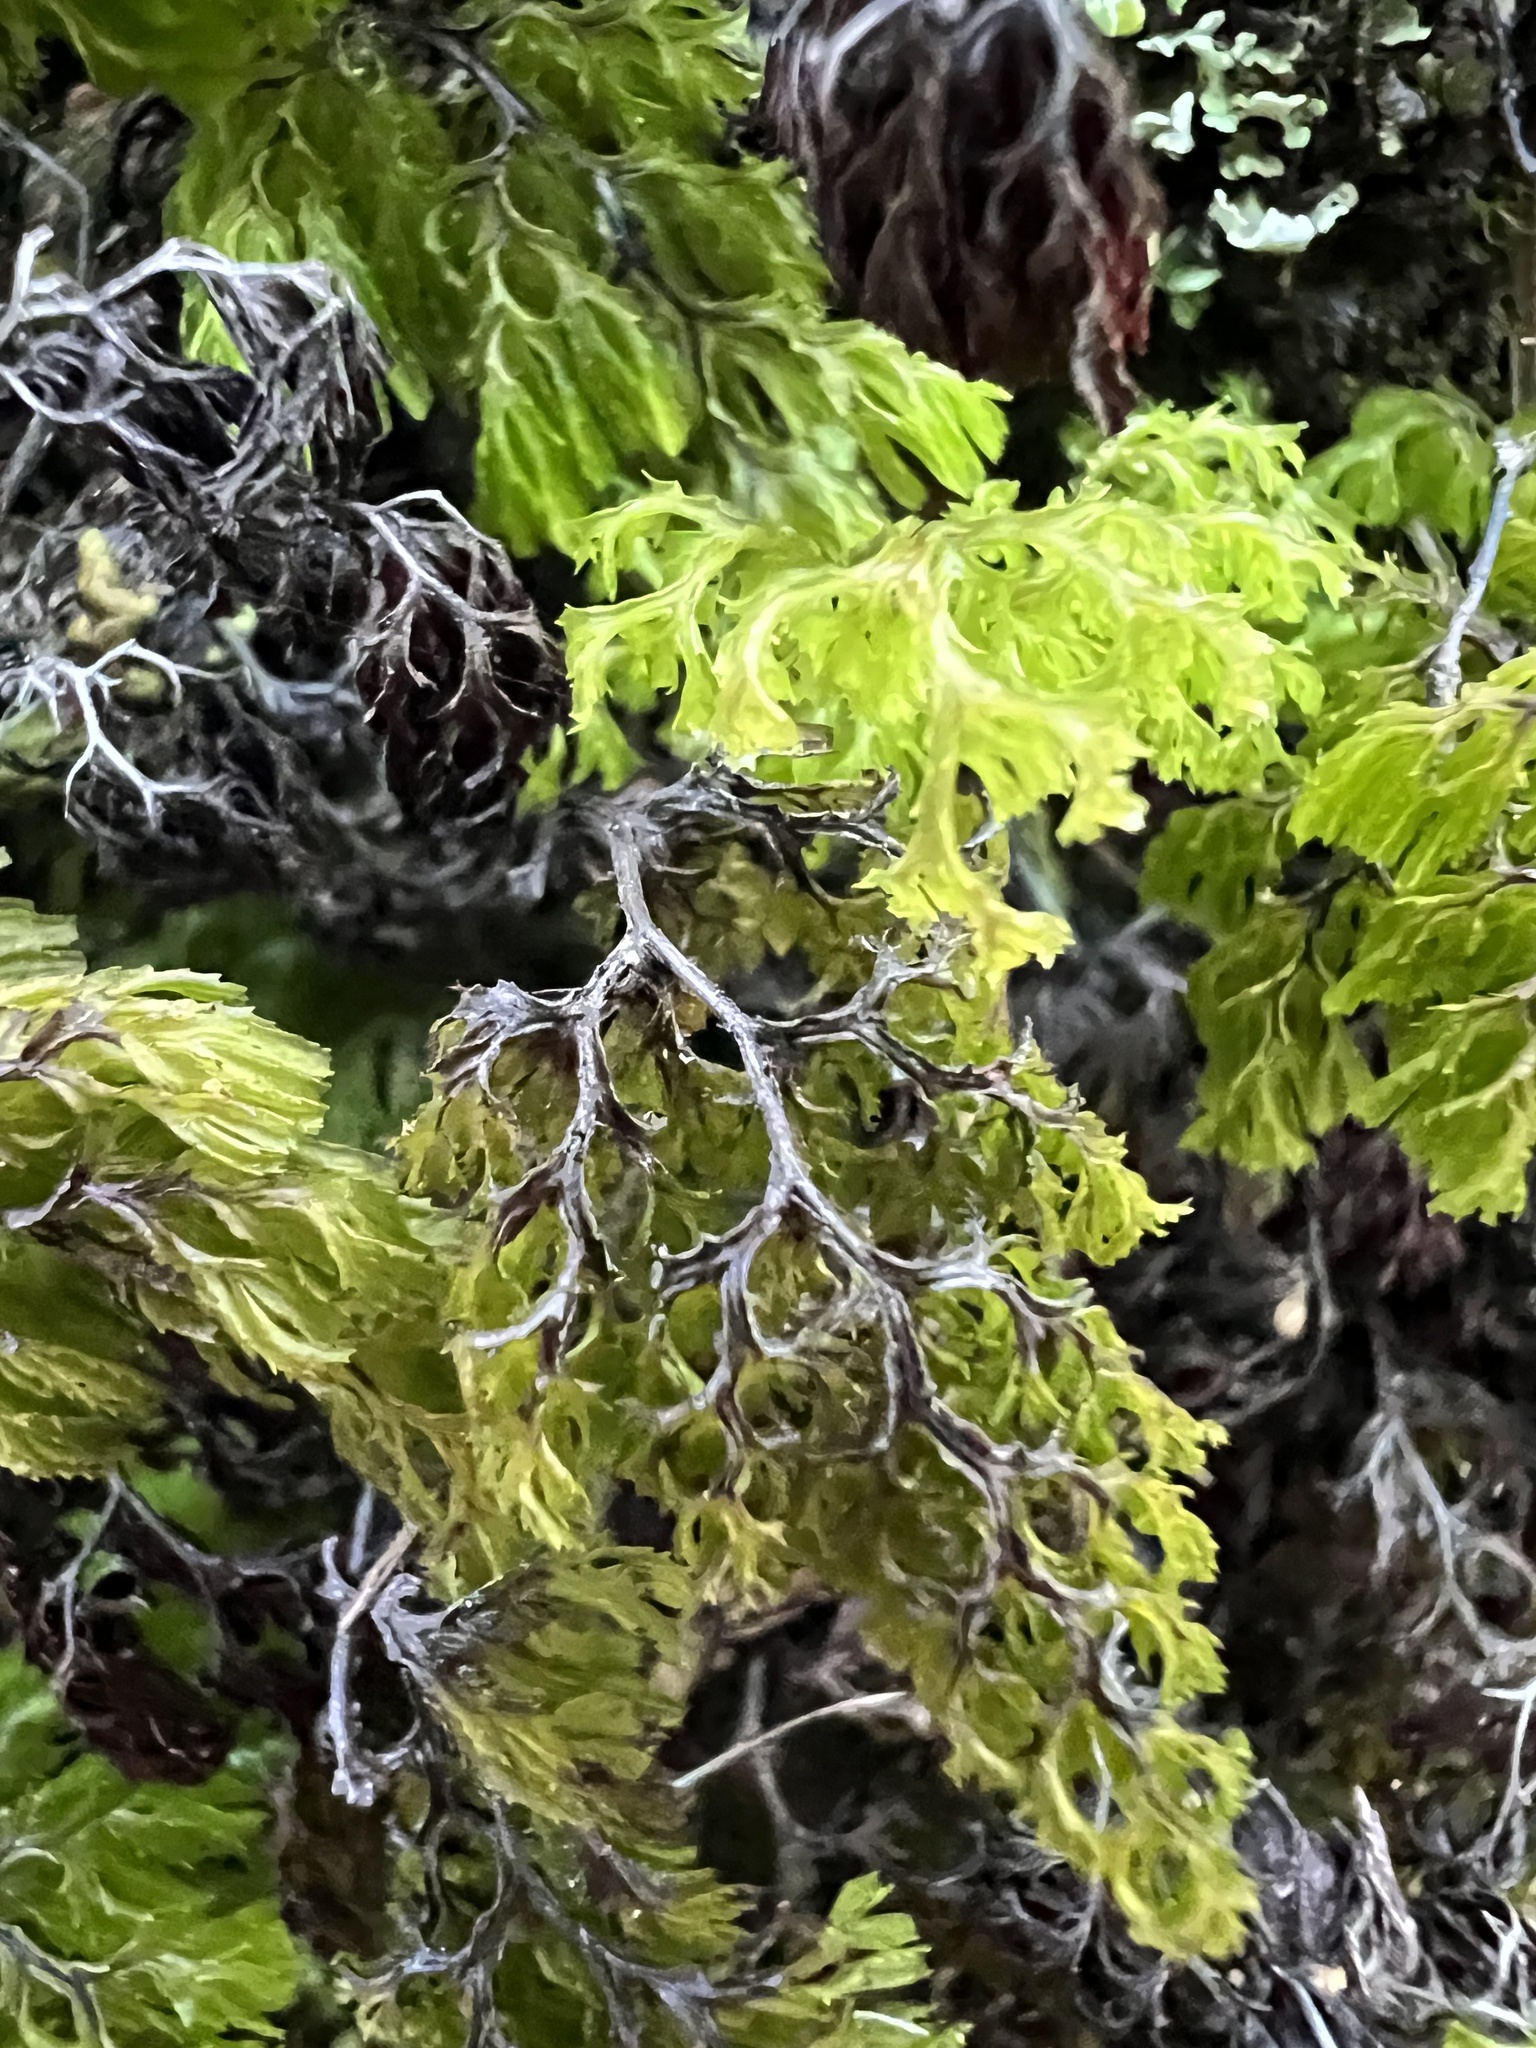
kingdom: Plantae
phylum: Tracheophyta
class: Polypodiopsida
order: Hymenophyllales
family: Hymenophyllaceae
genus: Hymenophyllum
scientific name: Hymenophyllum multifidum
